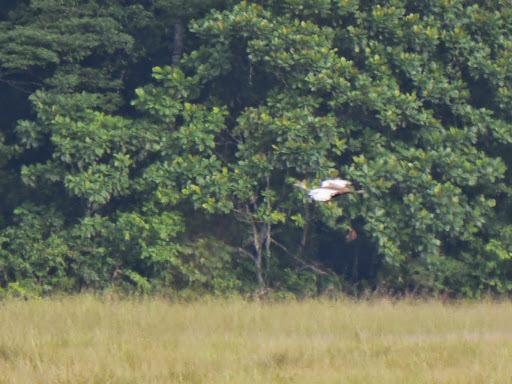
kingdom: Animalia
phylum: Chordata
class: Aves
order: Otidiformes
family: Otididae
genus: Lissotis
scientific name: Lissotis melanogaster
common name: Black-bellied bustard
